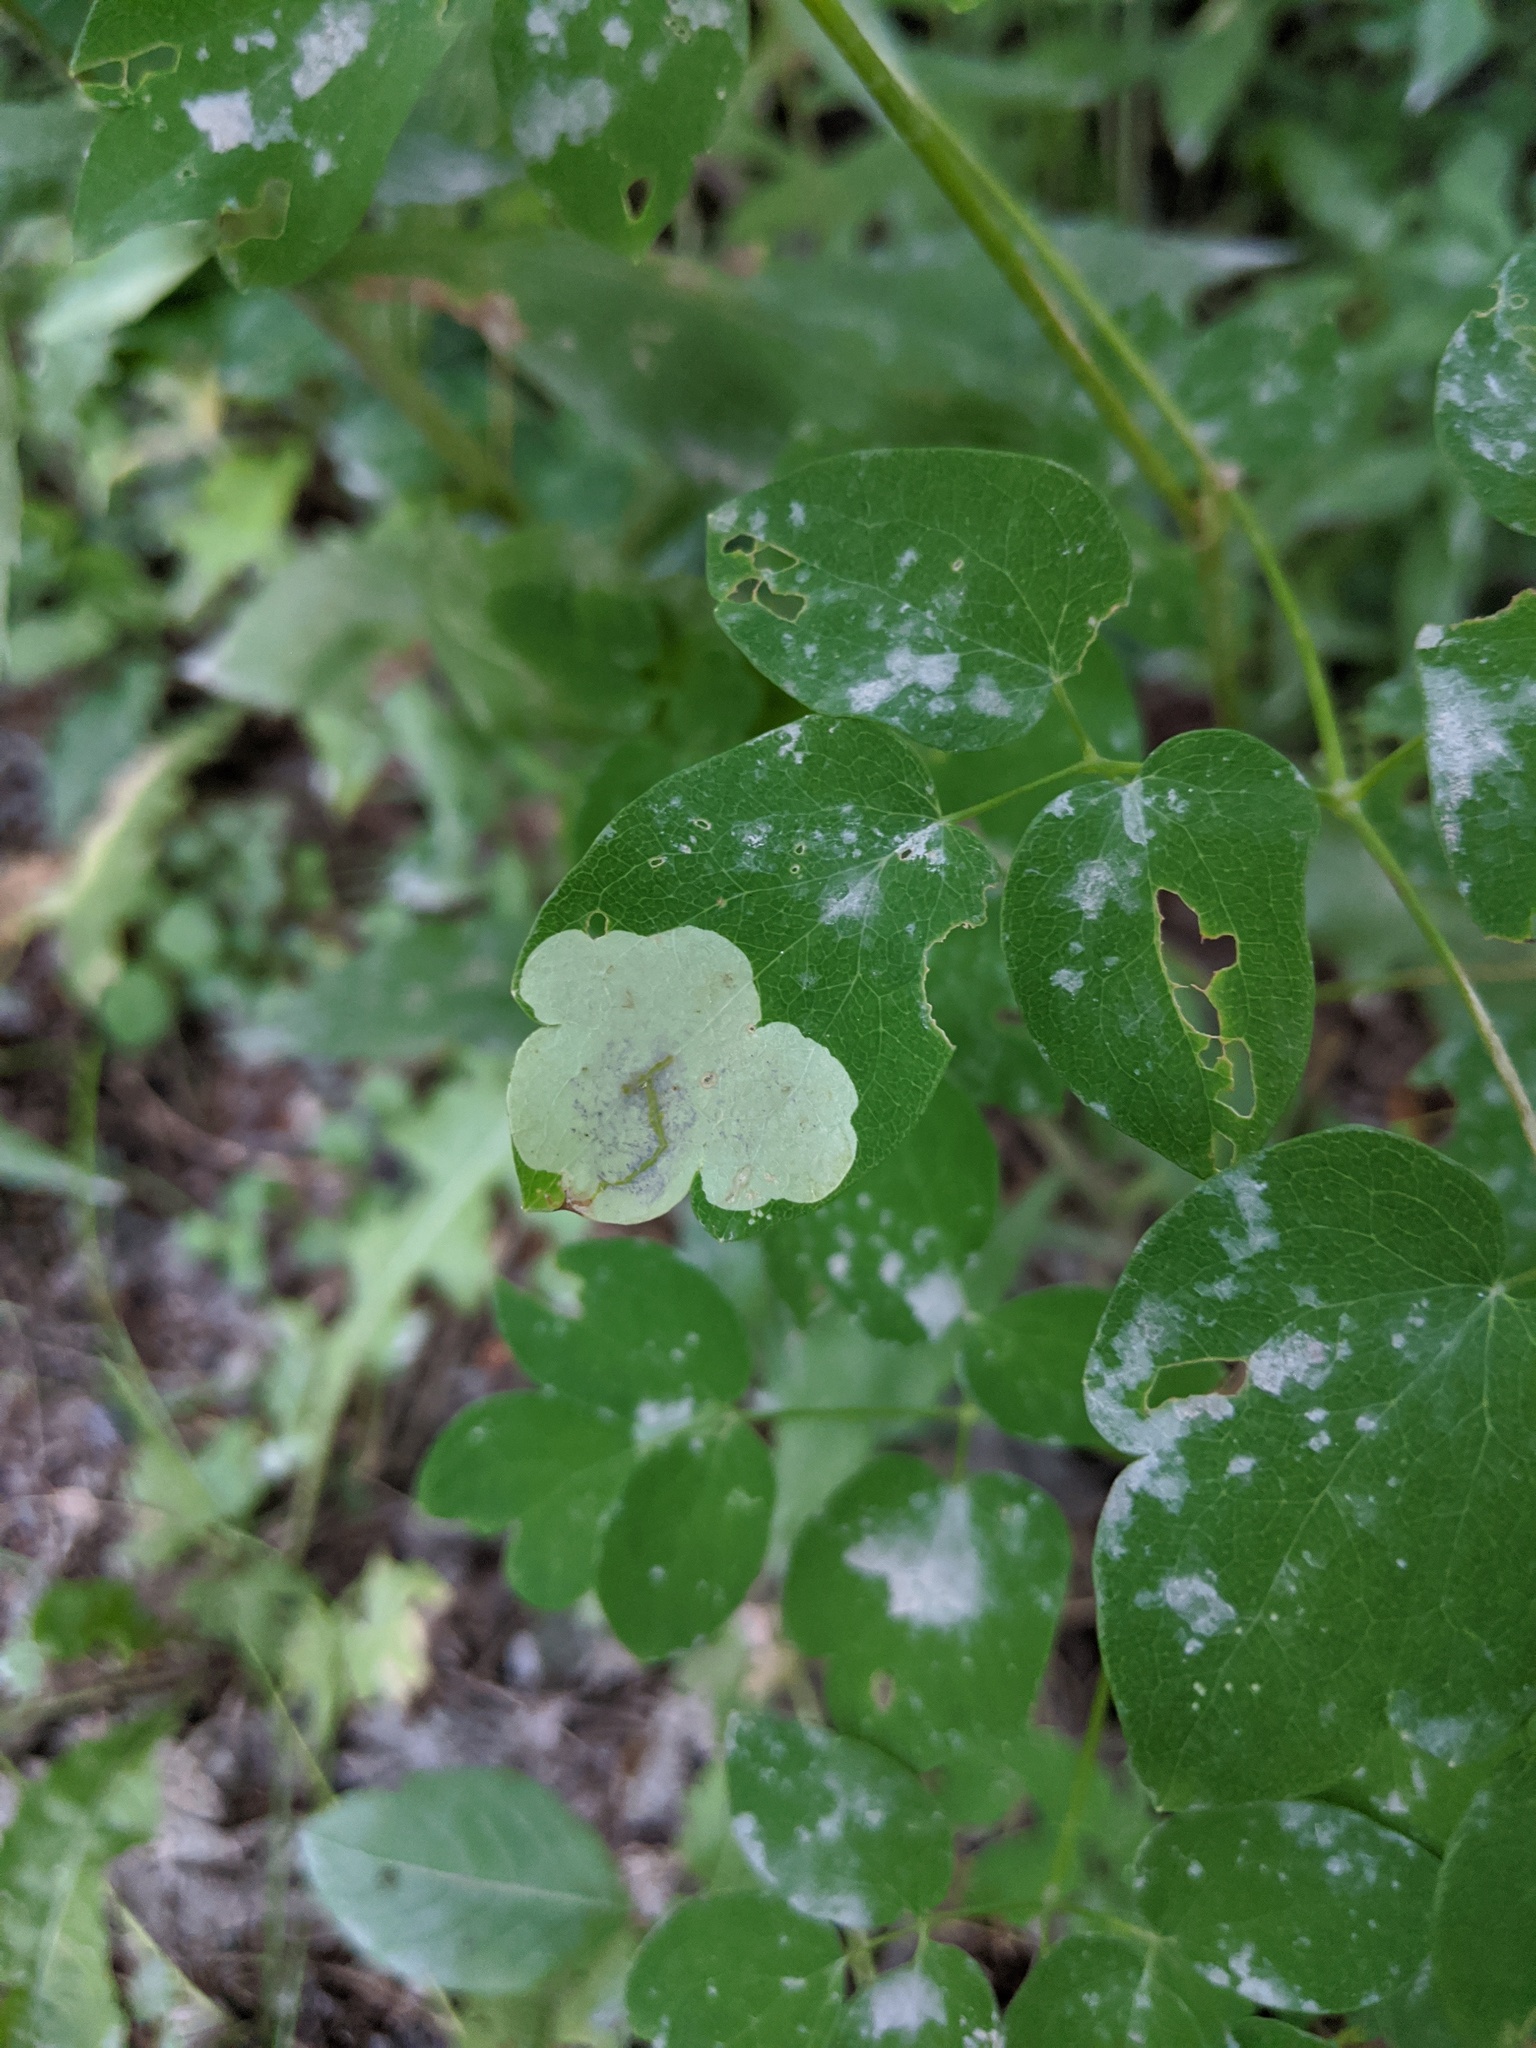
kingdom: Animalia
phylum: Arthropoda
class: Insecta
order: Diptera
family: Agromyzidae
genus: Phytomyza
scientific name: Phytomyza plumiseta
